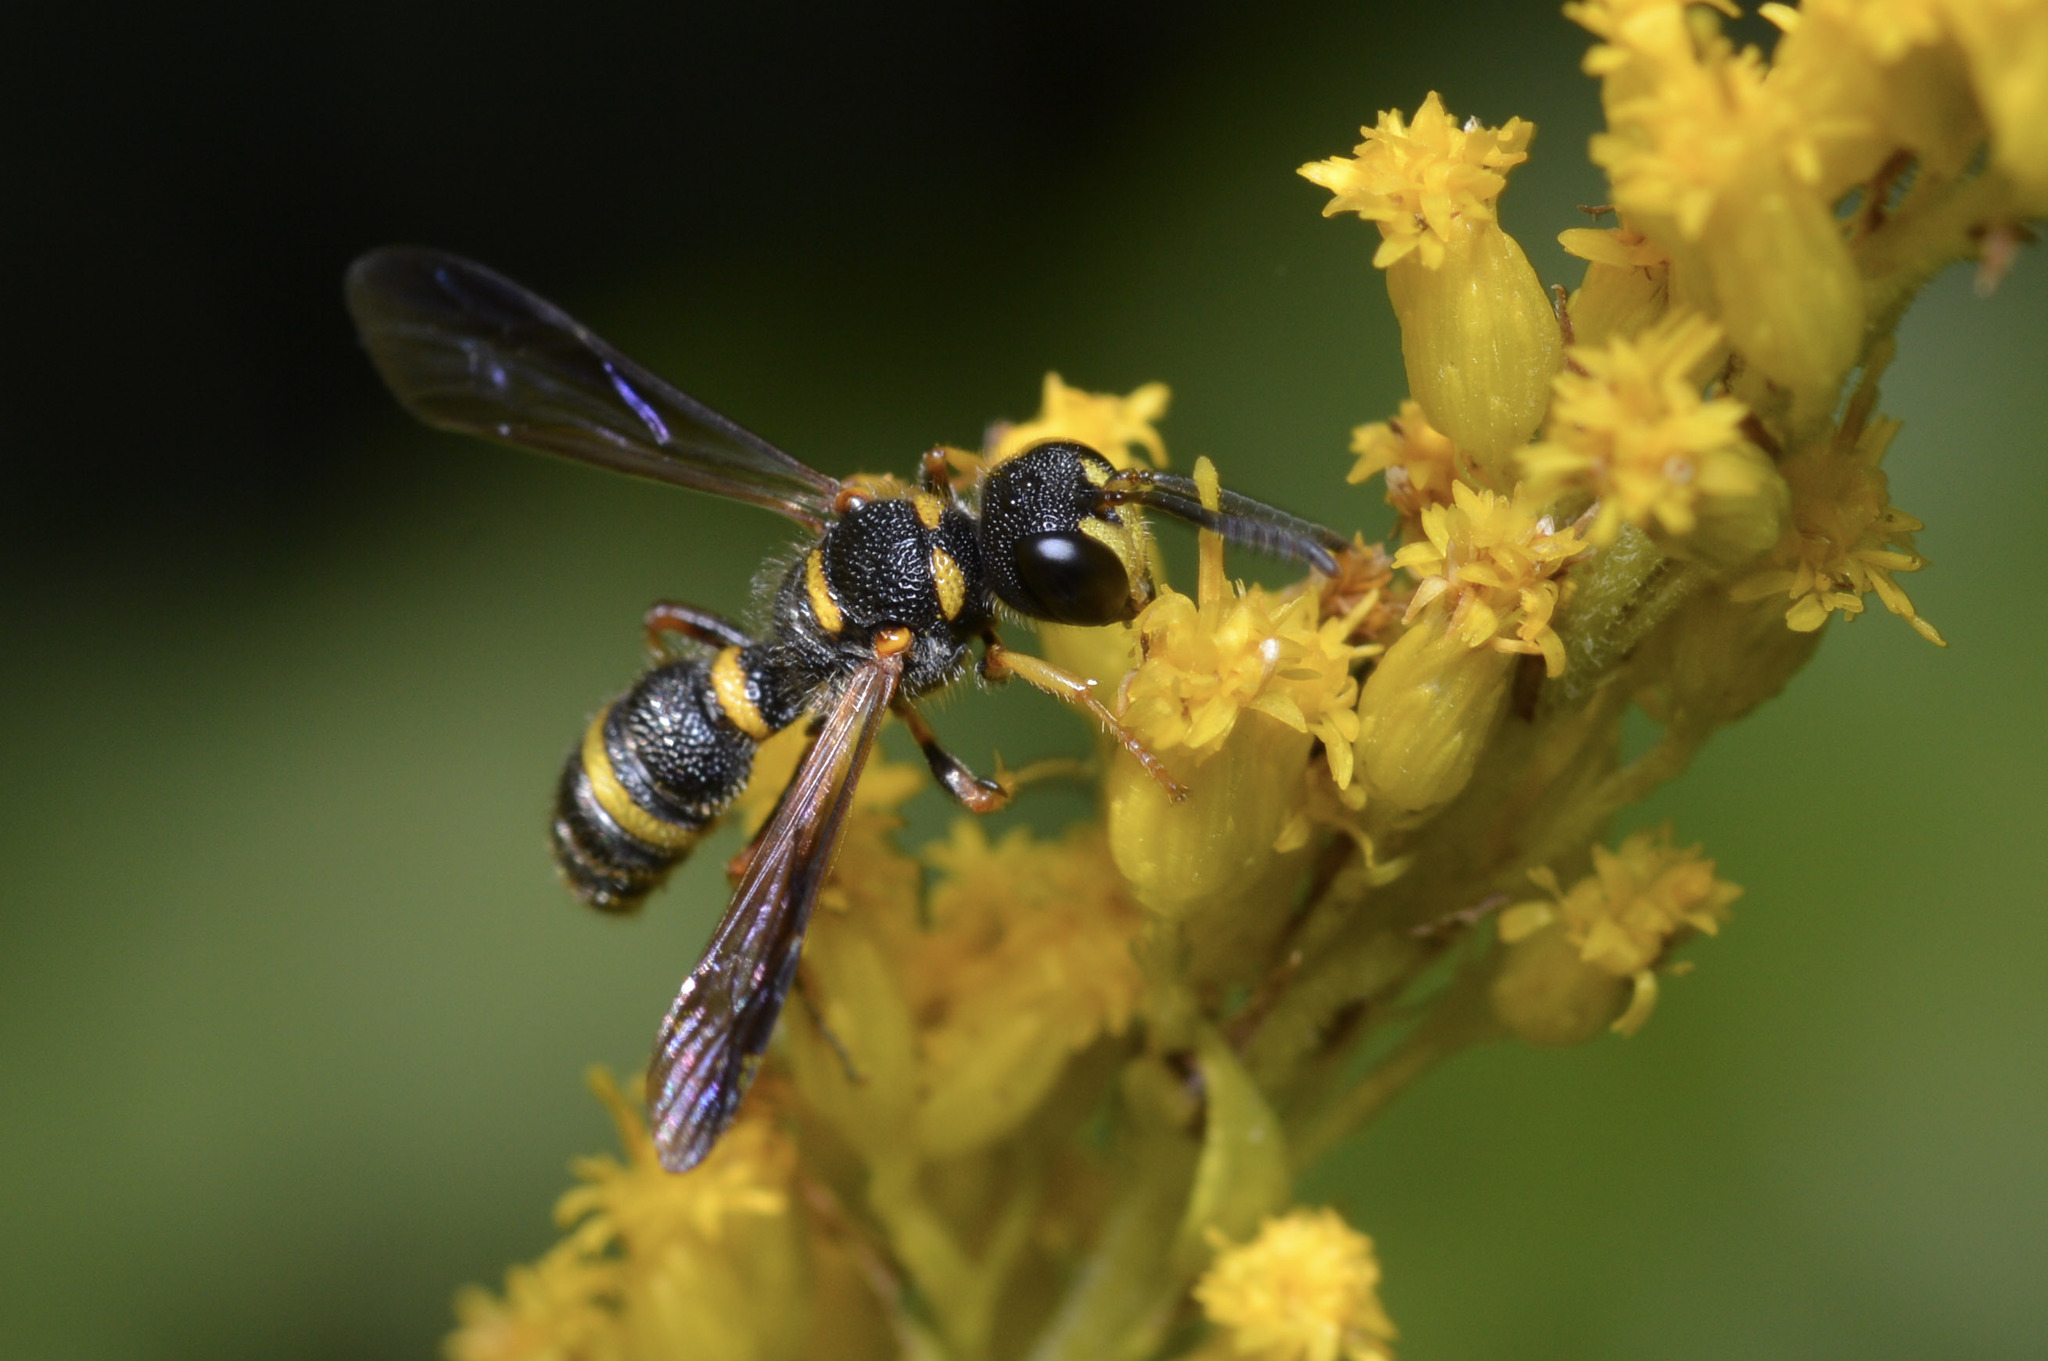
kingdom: Animalia
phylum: Arthropoda
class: Insecta
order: Hymenoptera
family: Crabronidae
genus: Cerceris
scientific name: Cerceris insolita
